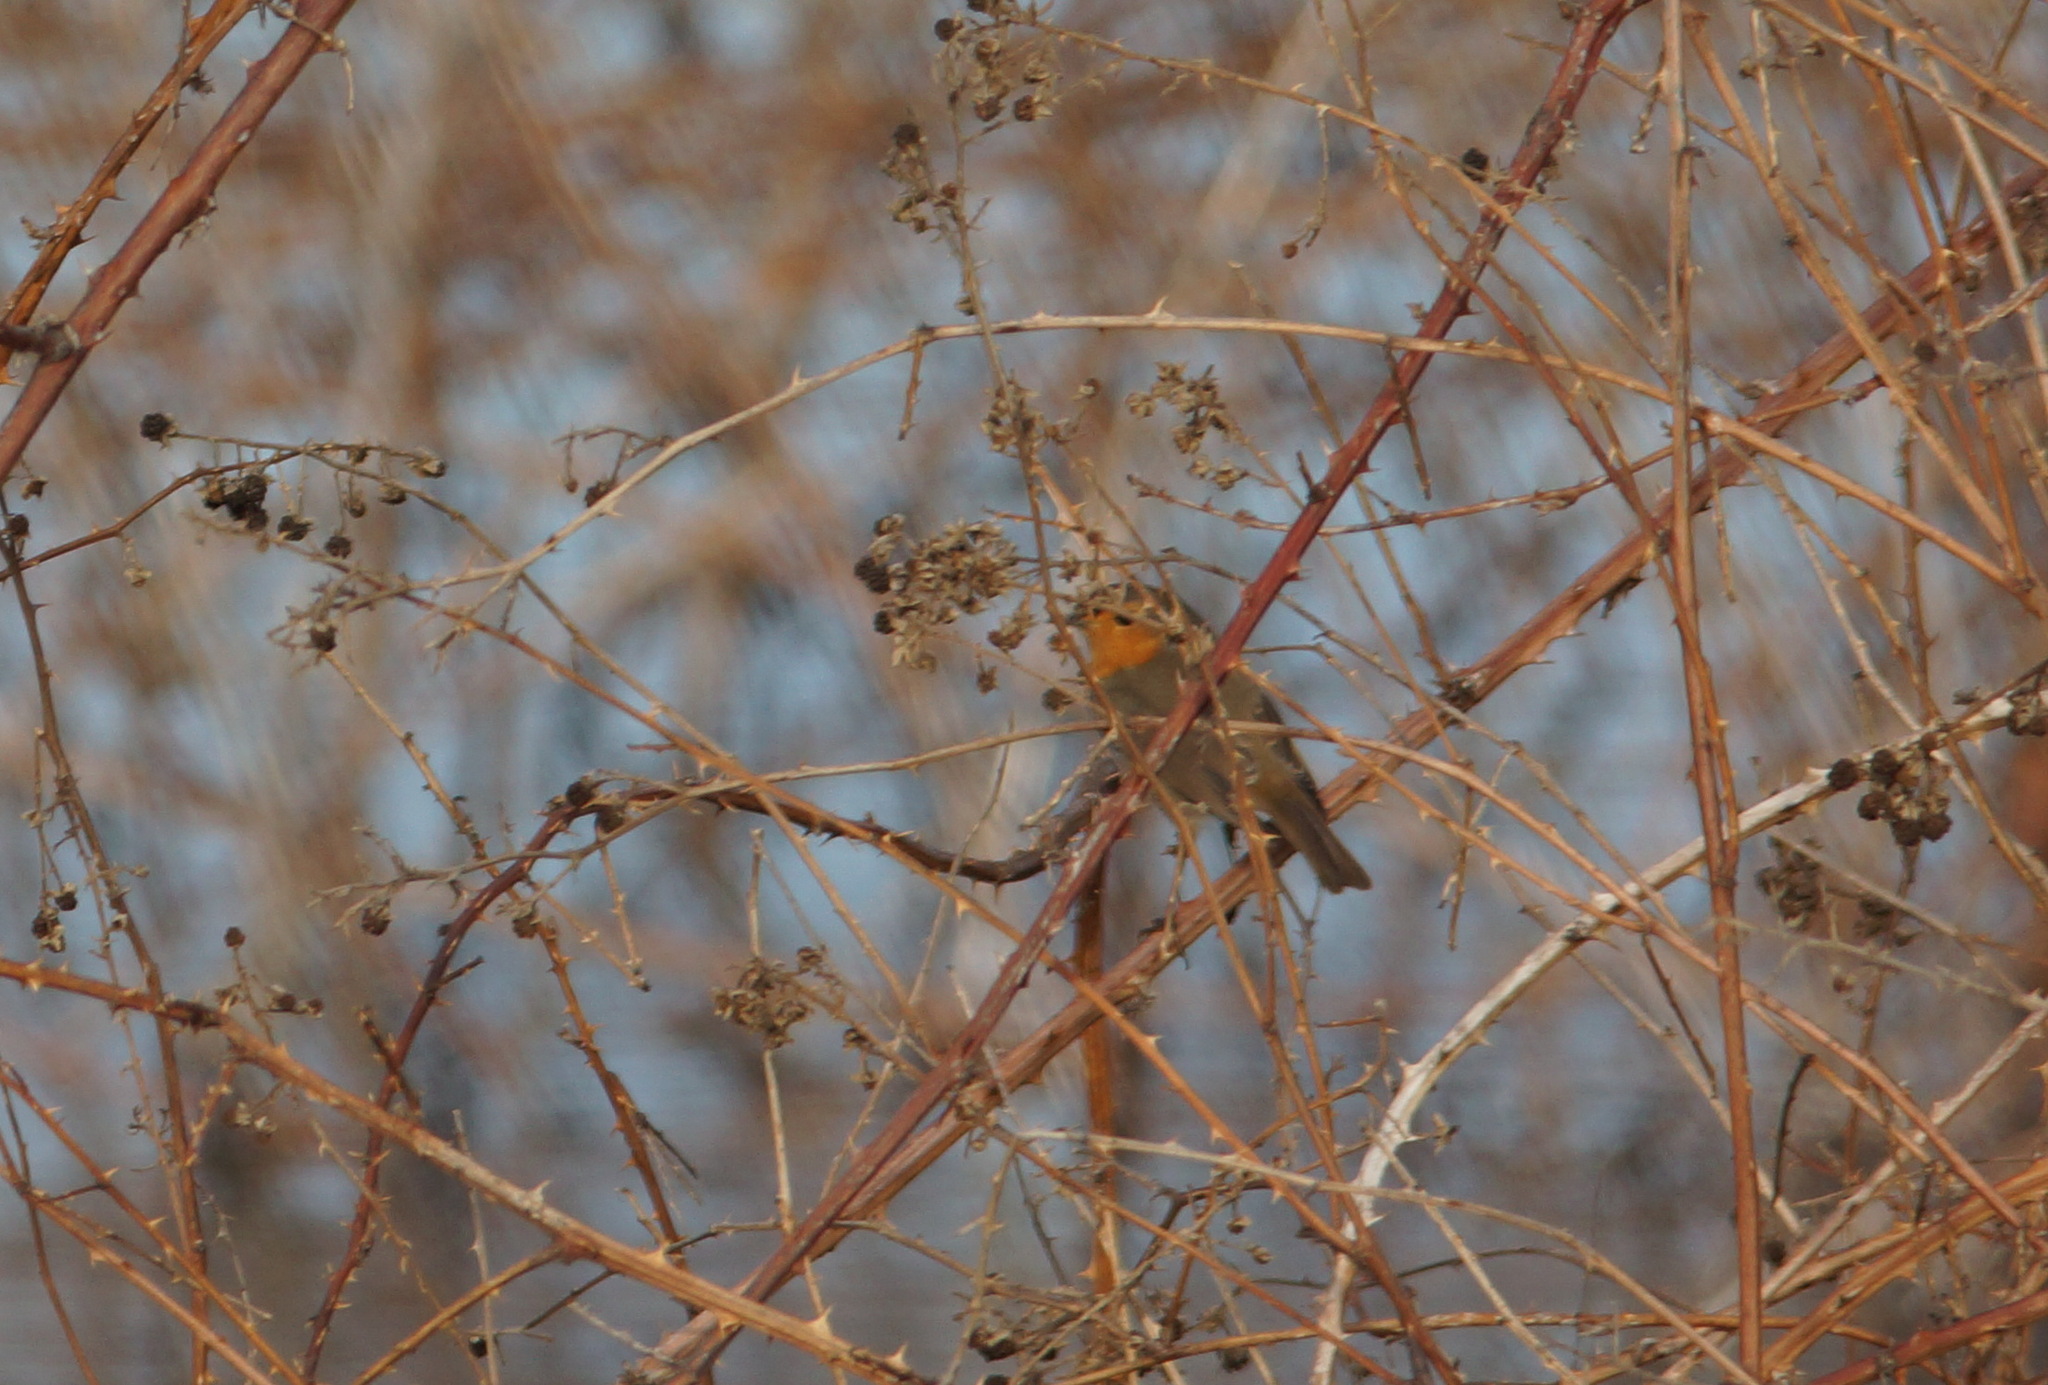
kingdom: Animalia
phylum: Chordata
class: Aves
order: Passeriformes
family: Muscicapidae
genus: Erithacus
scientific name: Erithacus rubecula
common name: European robin
